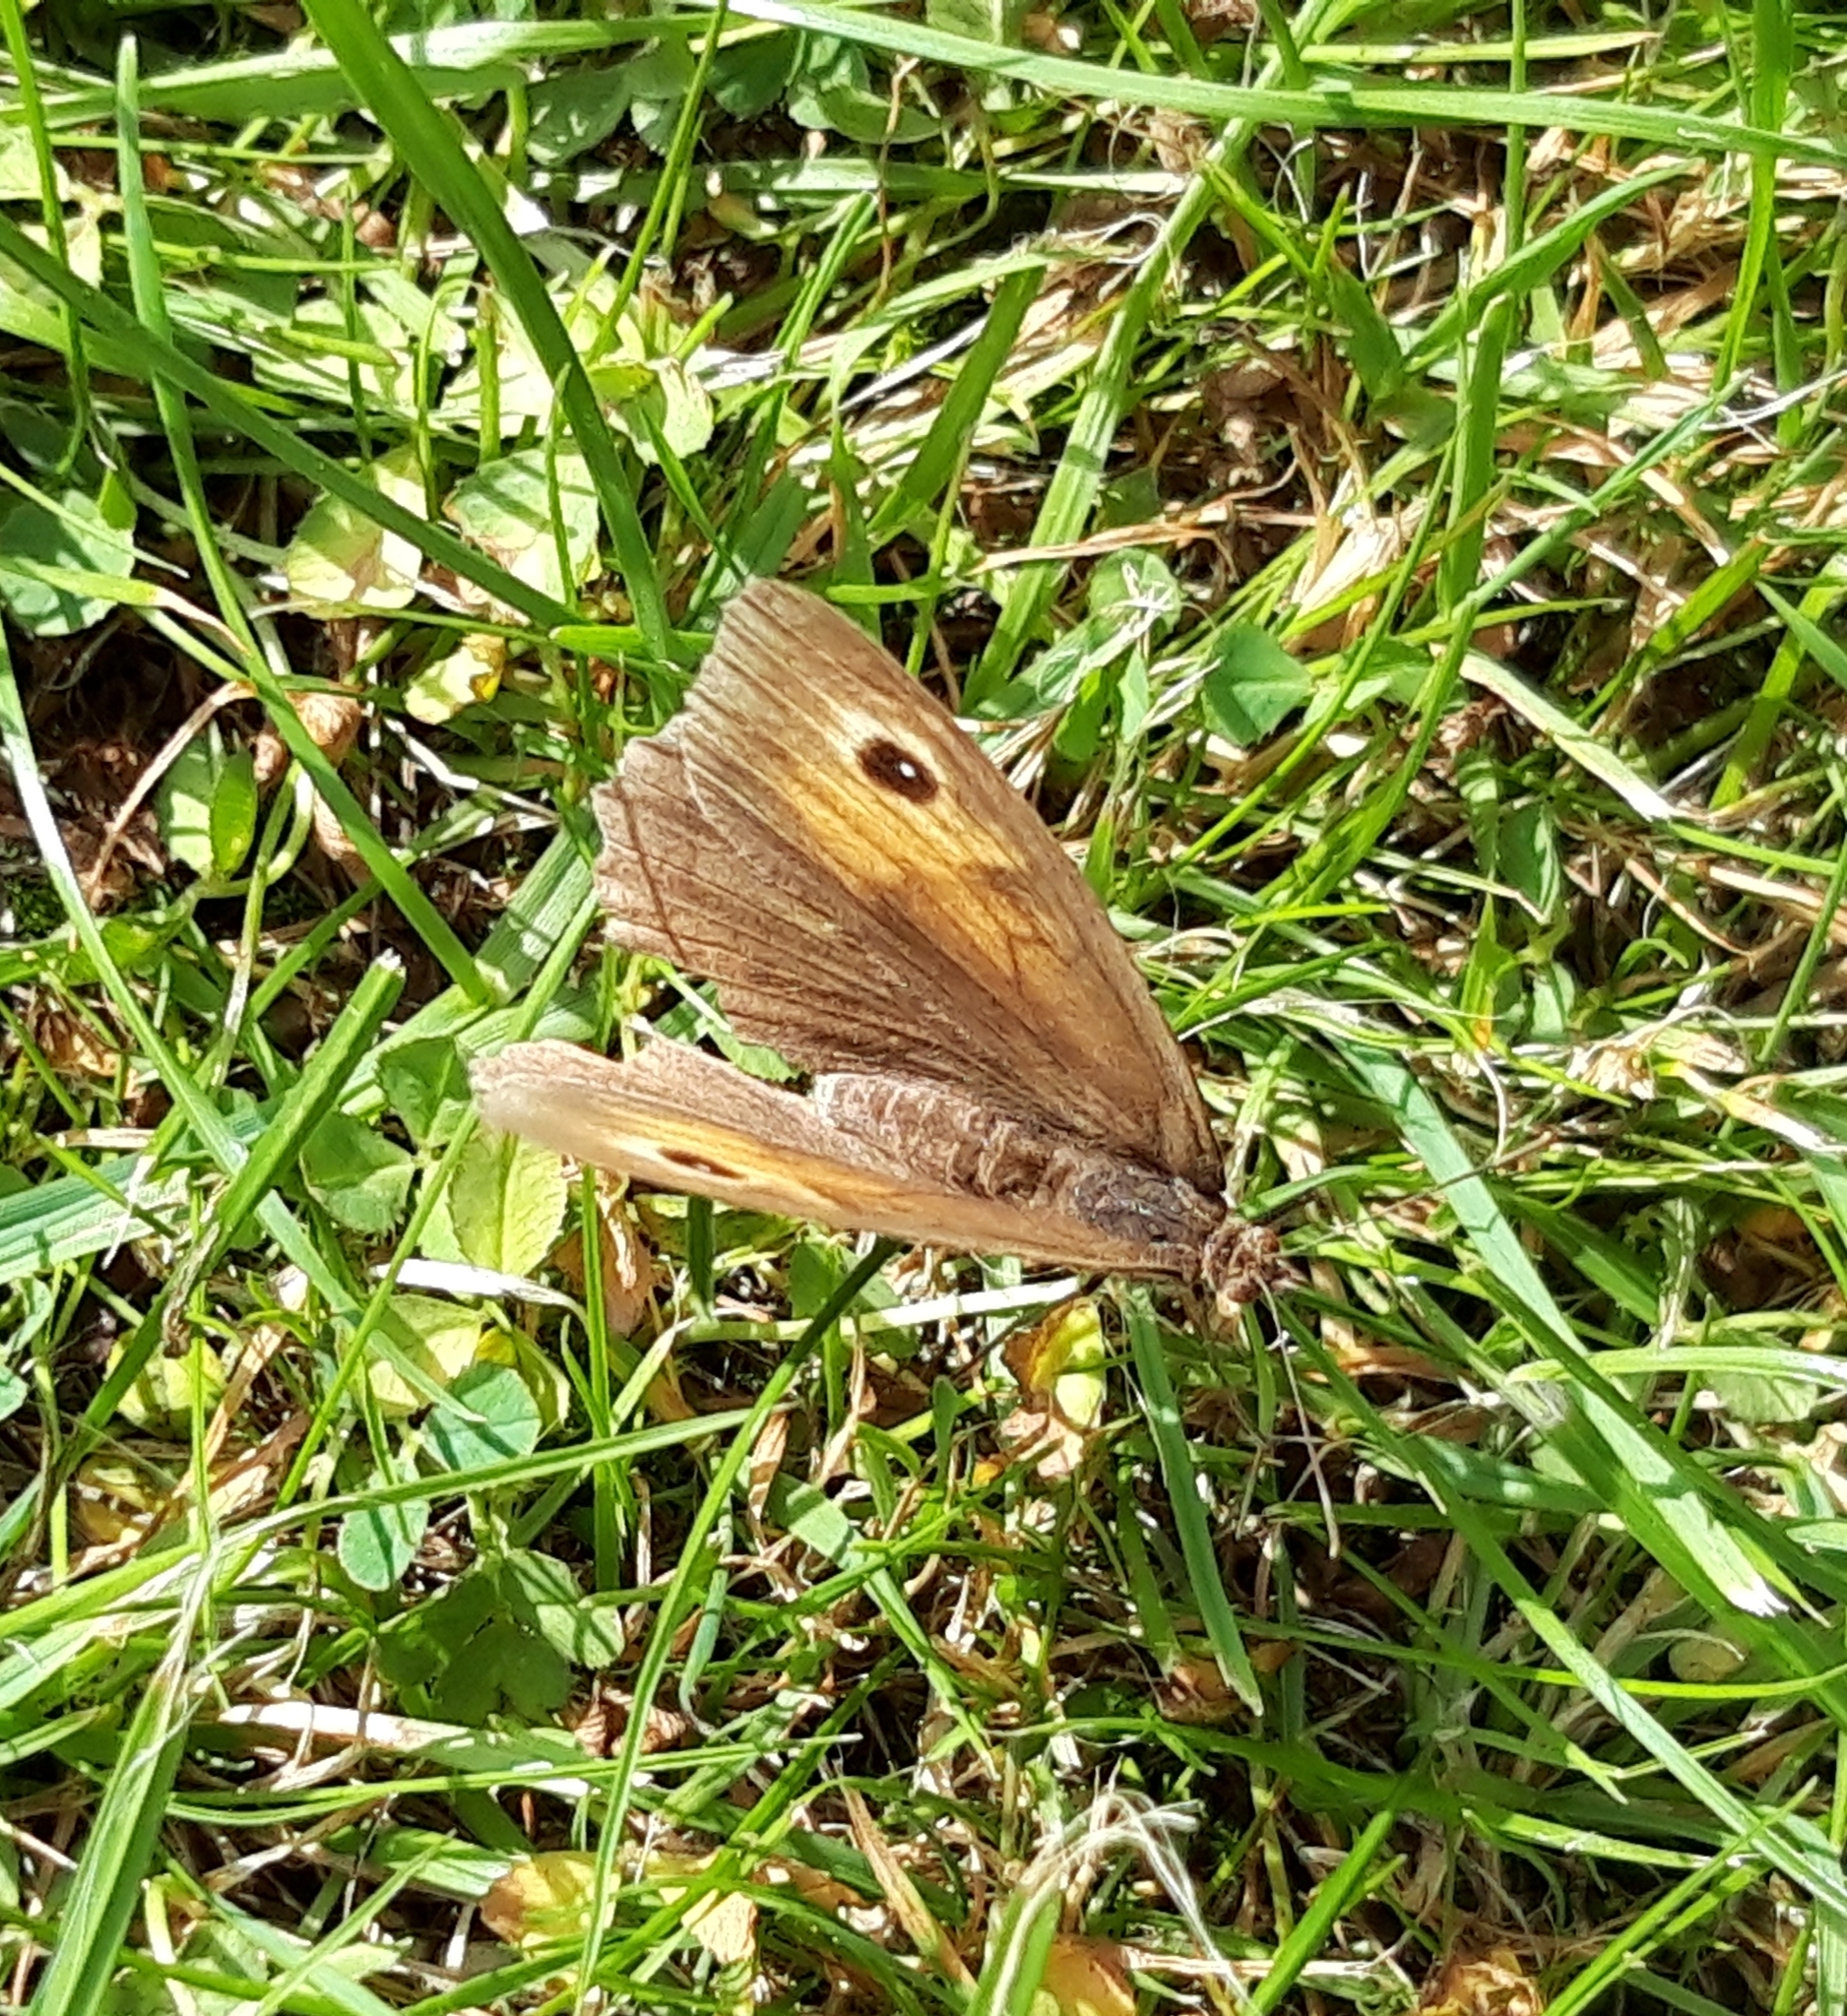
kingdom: Animalia
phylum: Arthropoda
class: Insecta
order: Lepidoptera
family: Nymphalidae
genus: Maniola
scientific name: Maniola jurtina
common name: Meadow brown
